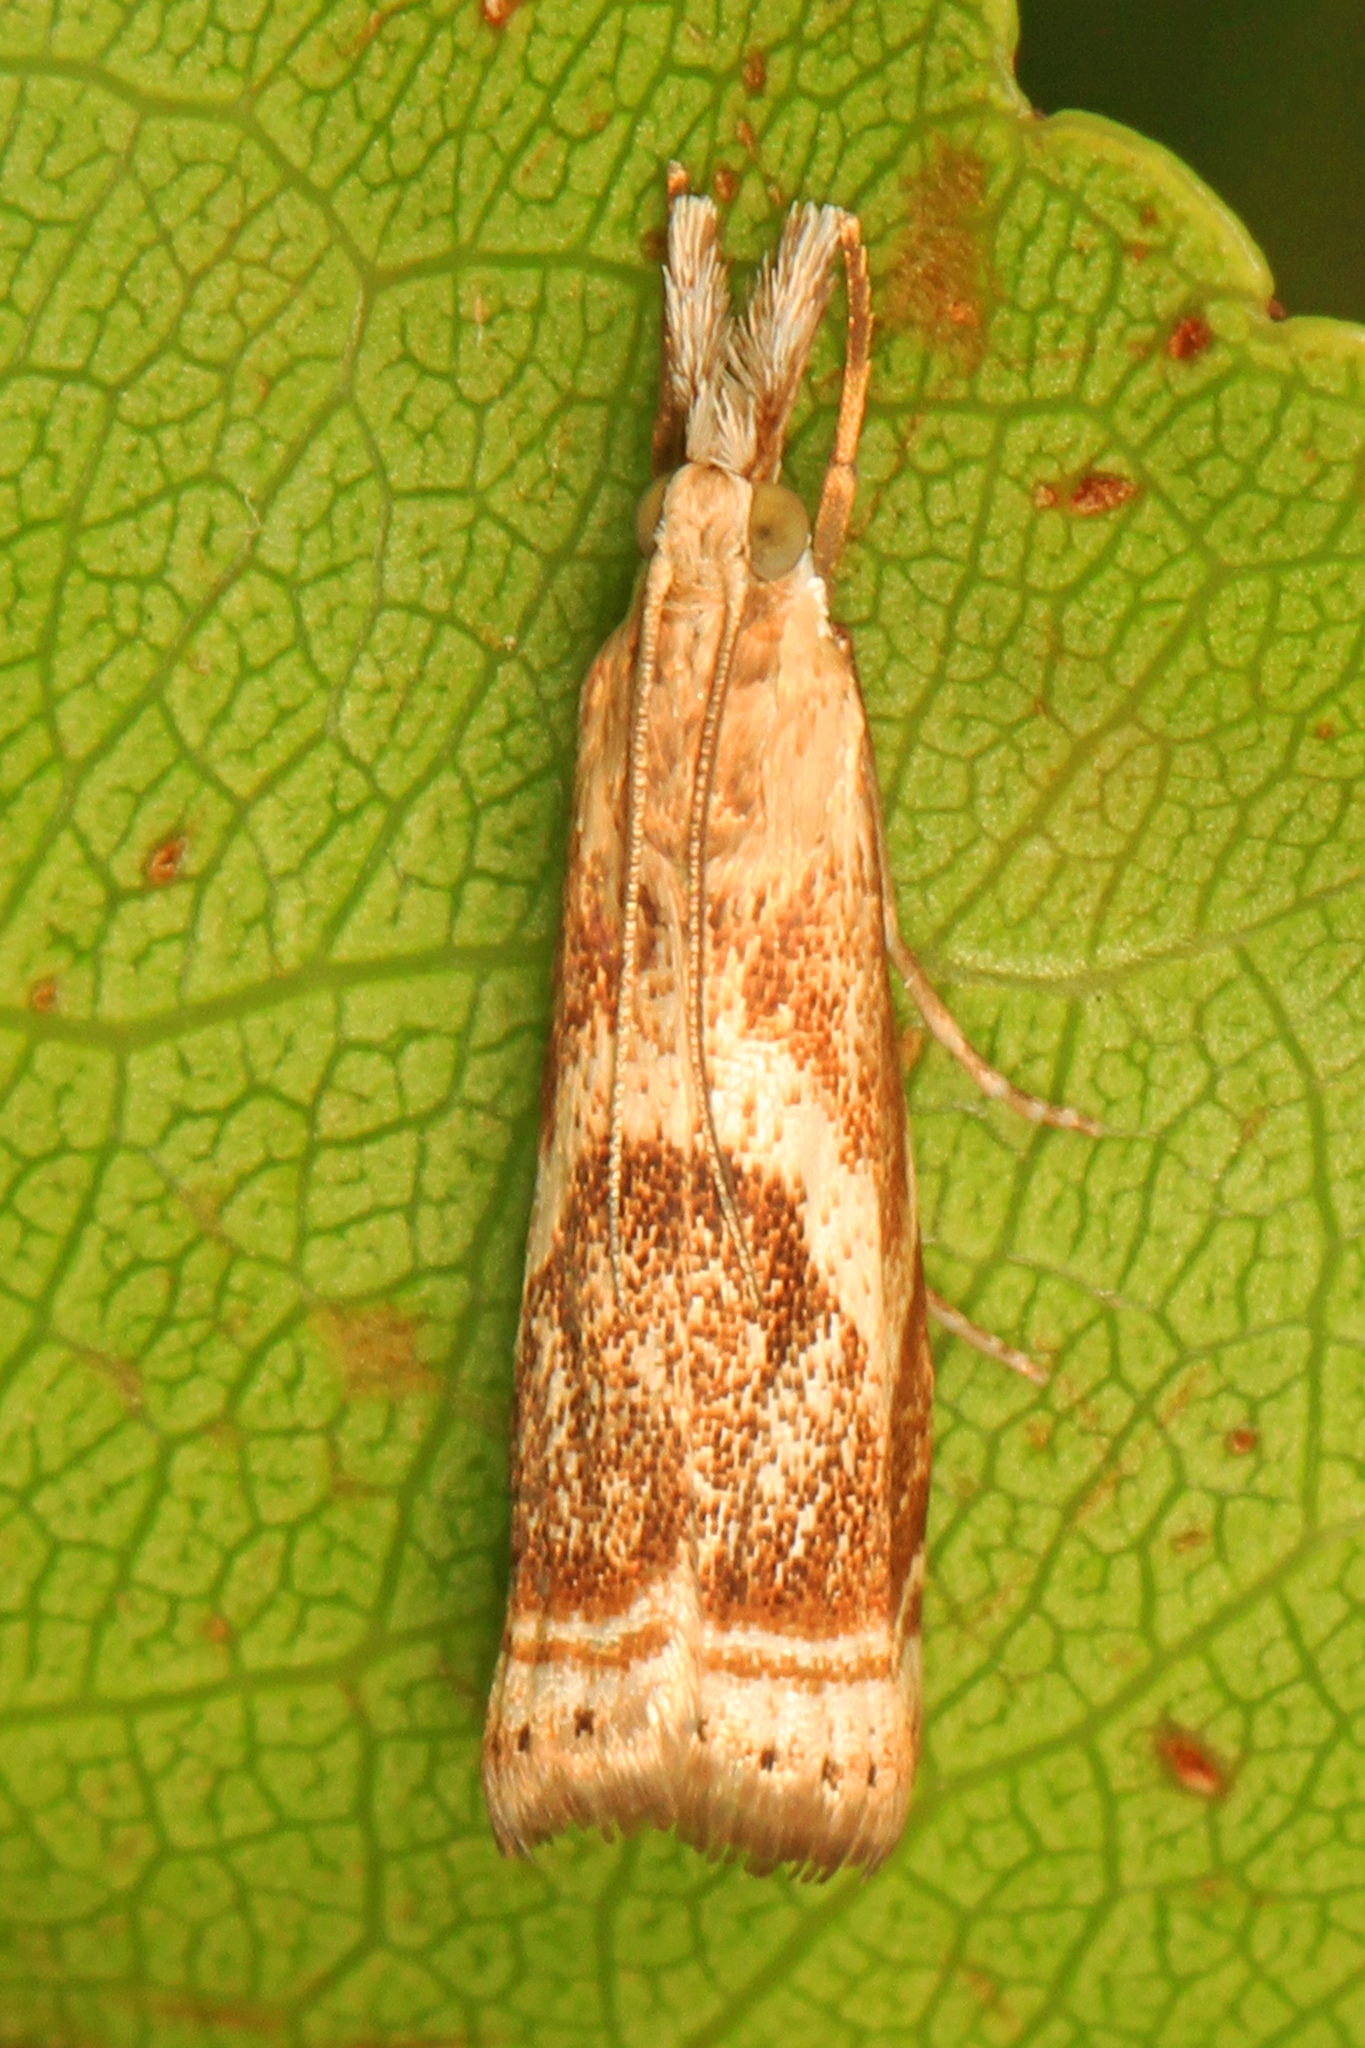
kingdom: Animalia
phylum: Arthropoda
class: Insecta
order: Lepidoptera
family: Crambidae
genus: Microcrambus
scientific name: Microcrambus elegans
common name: Elegant grass-veneer
